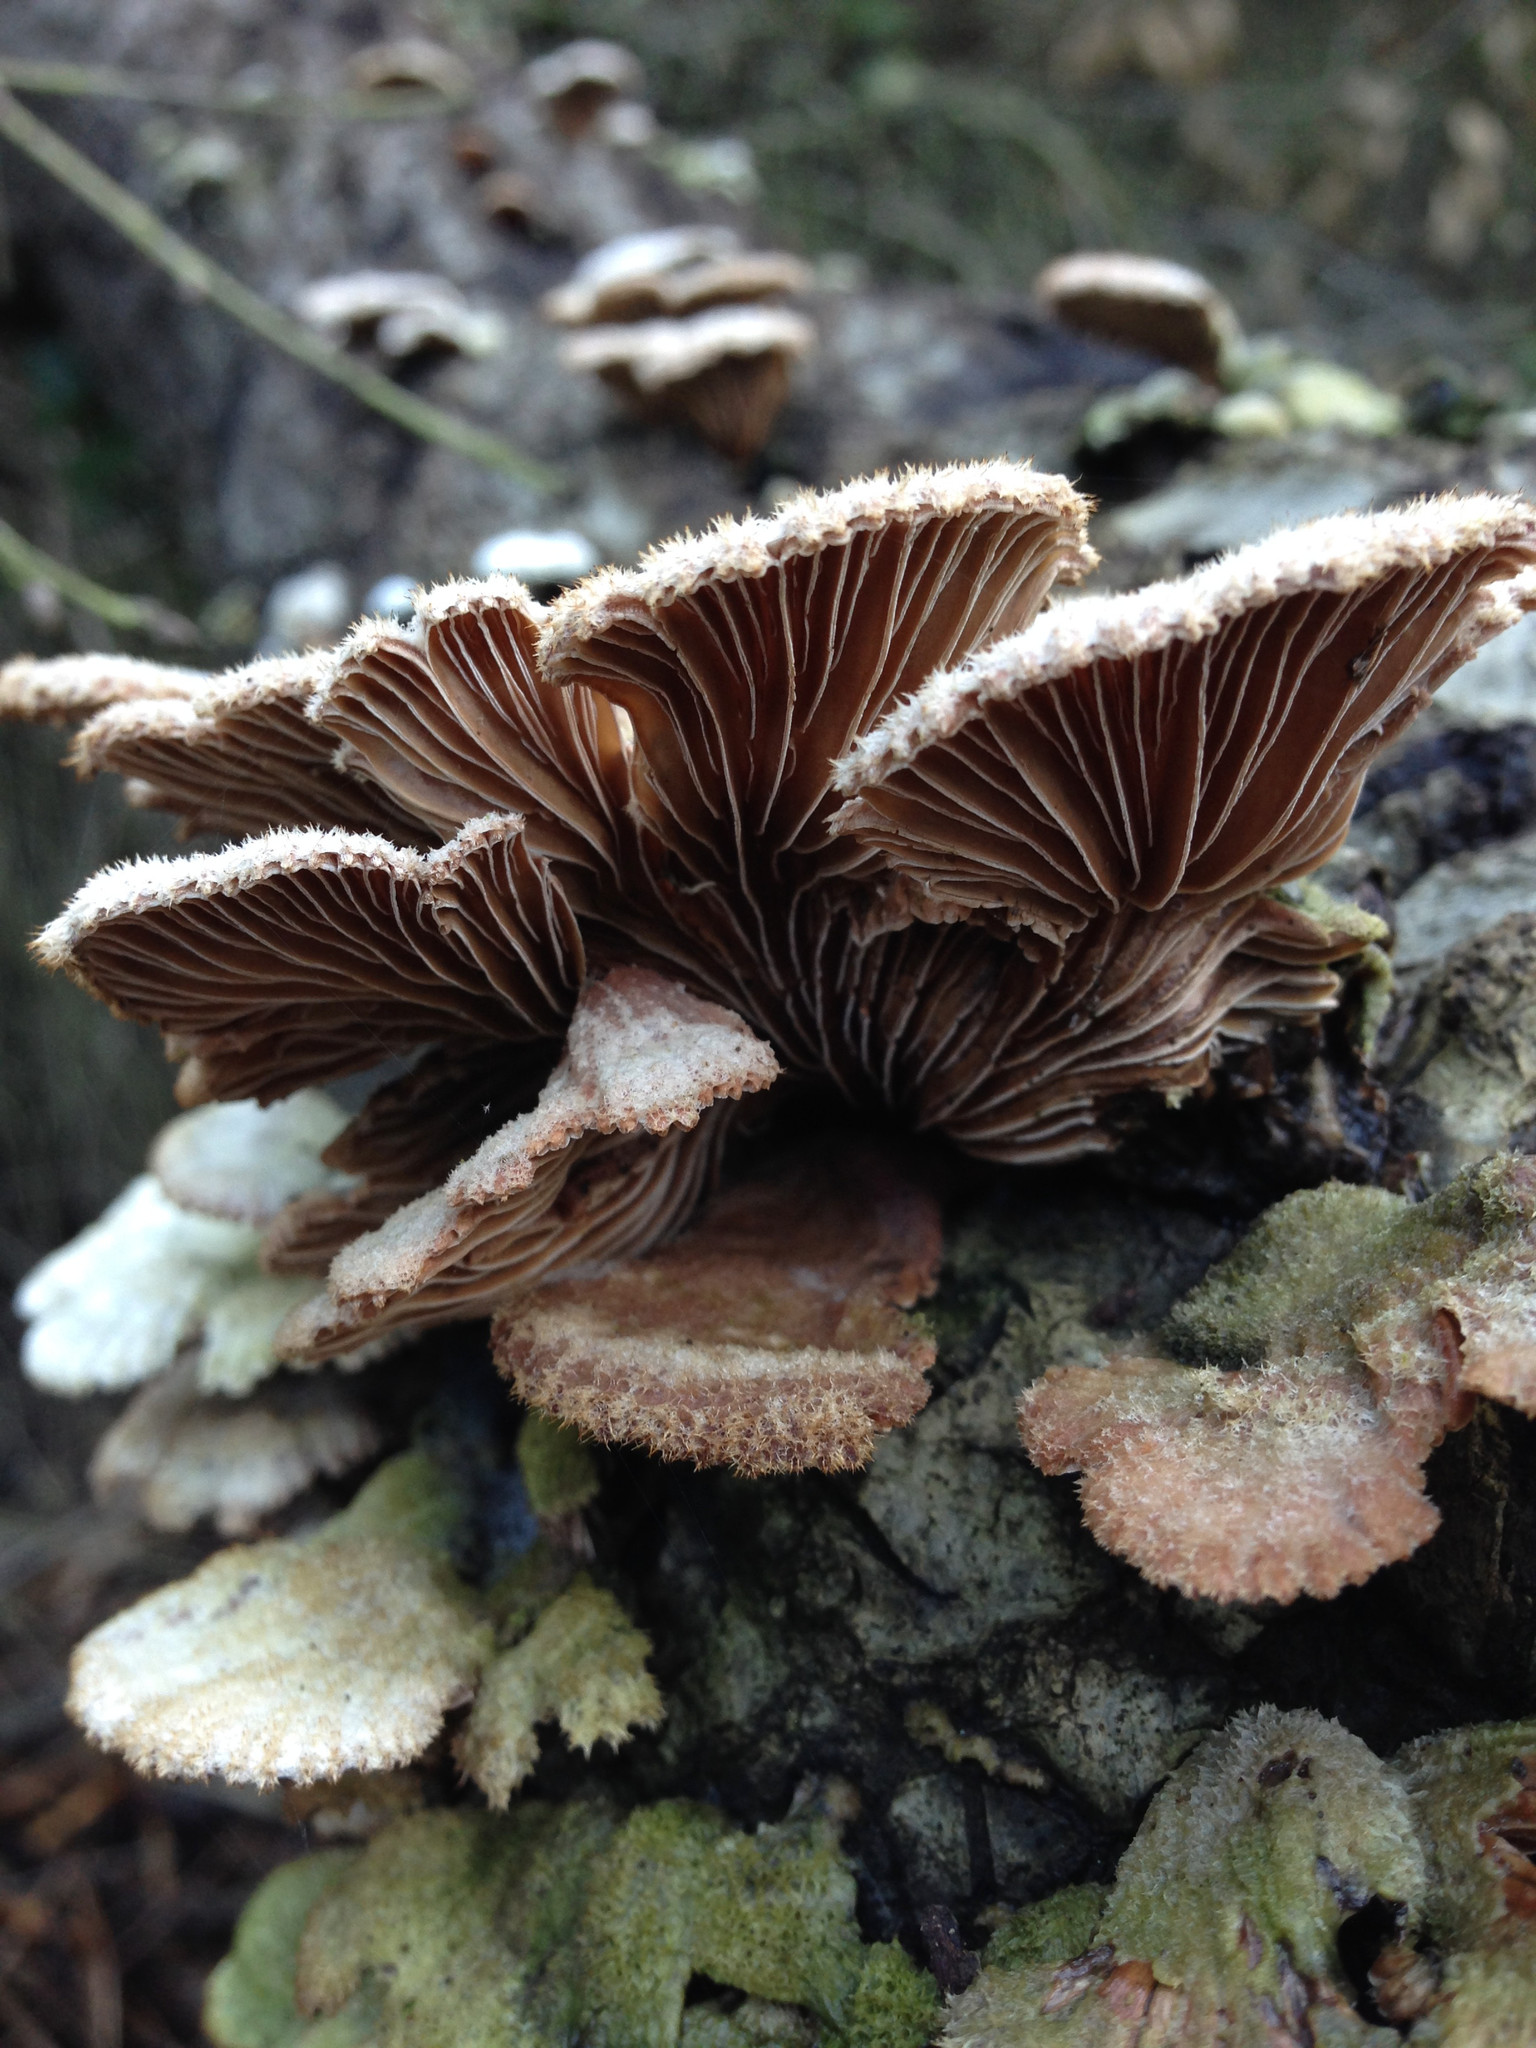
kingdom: Fungi
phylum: Basidiomycota
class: Agaricomycetes
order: Agaricales
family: Schizophyllaceae
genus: Schizophyllum
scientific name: Schizophyllum commune
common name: Common porecrust
